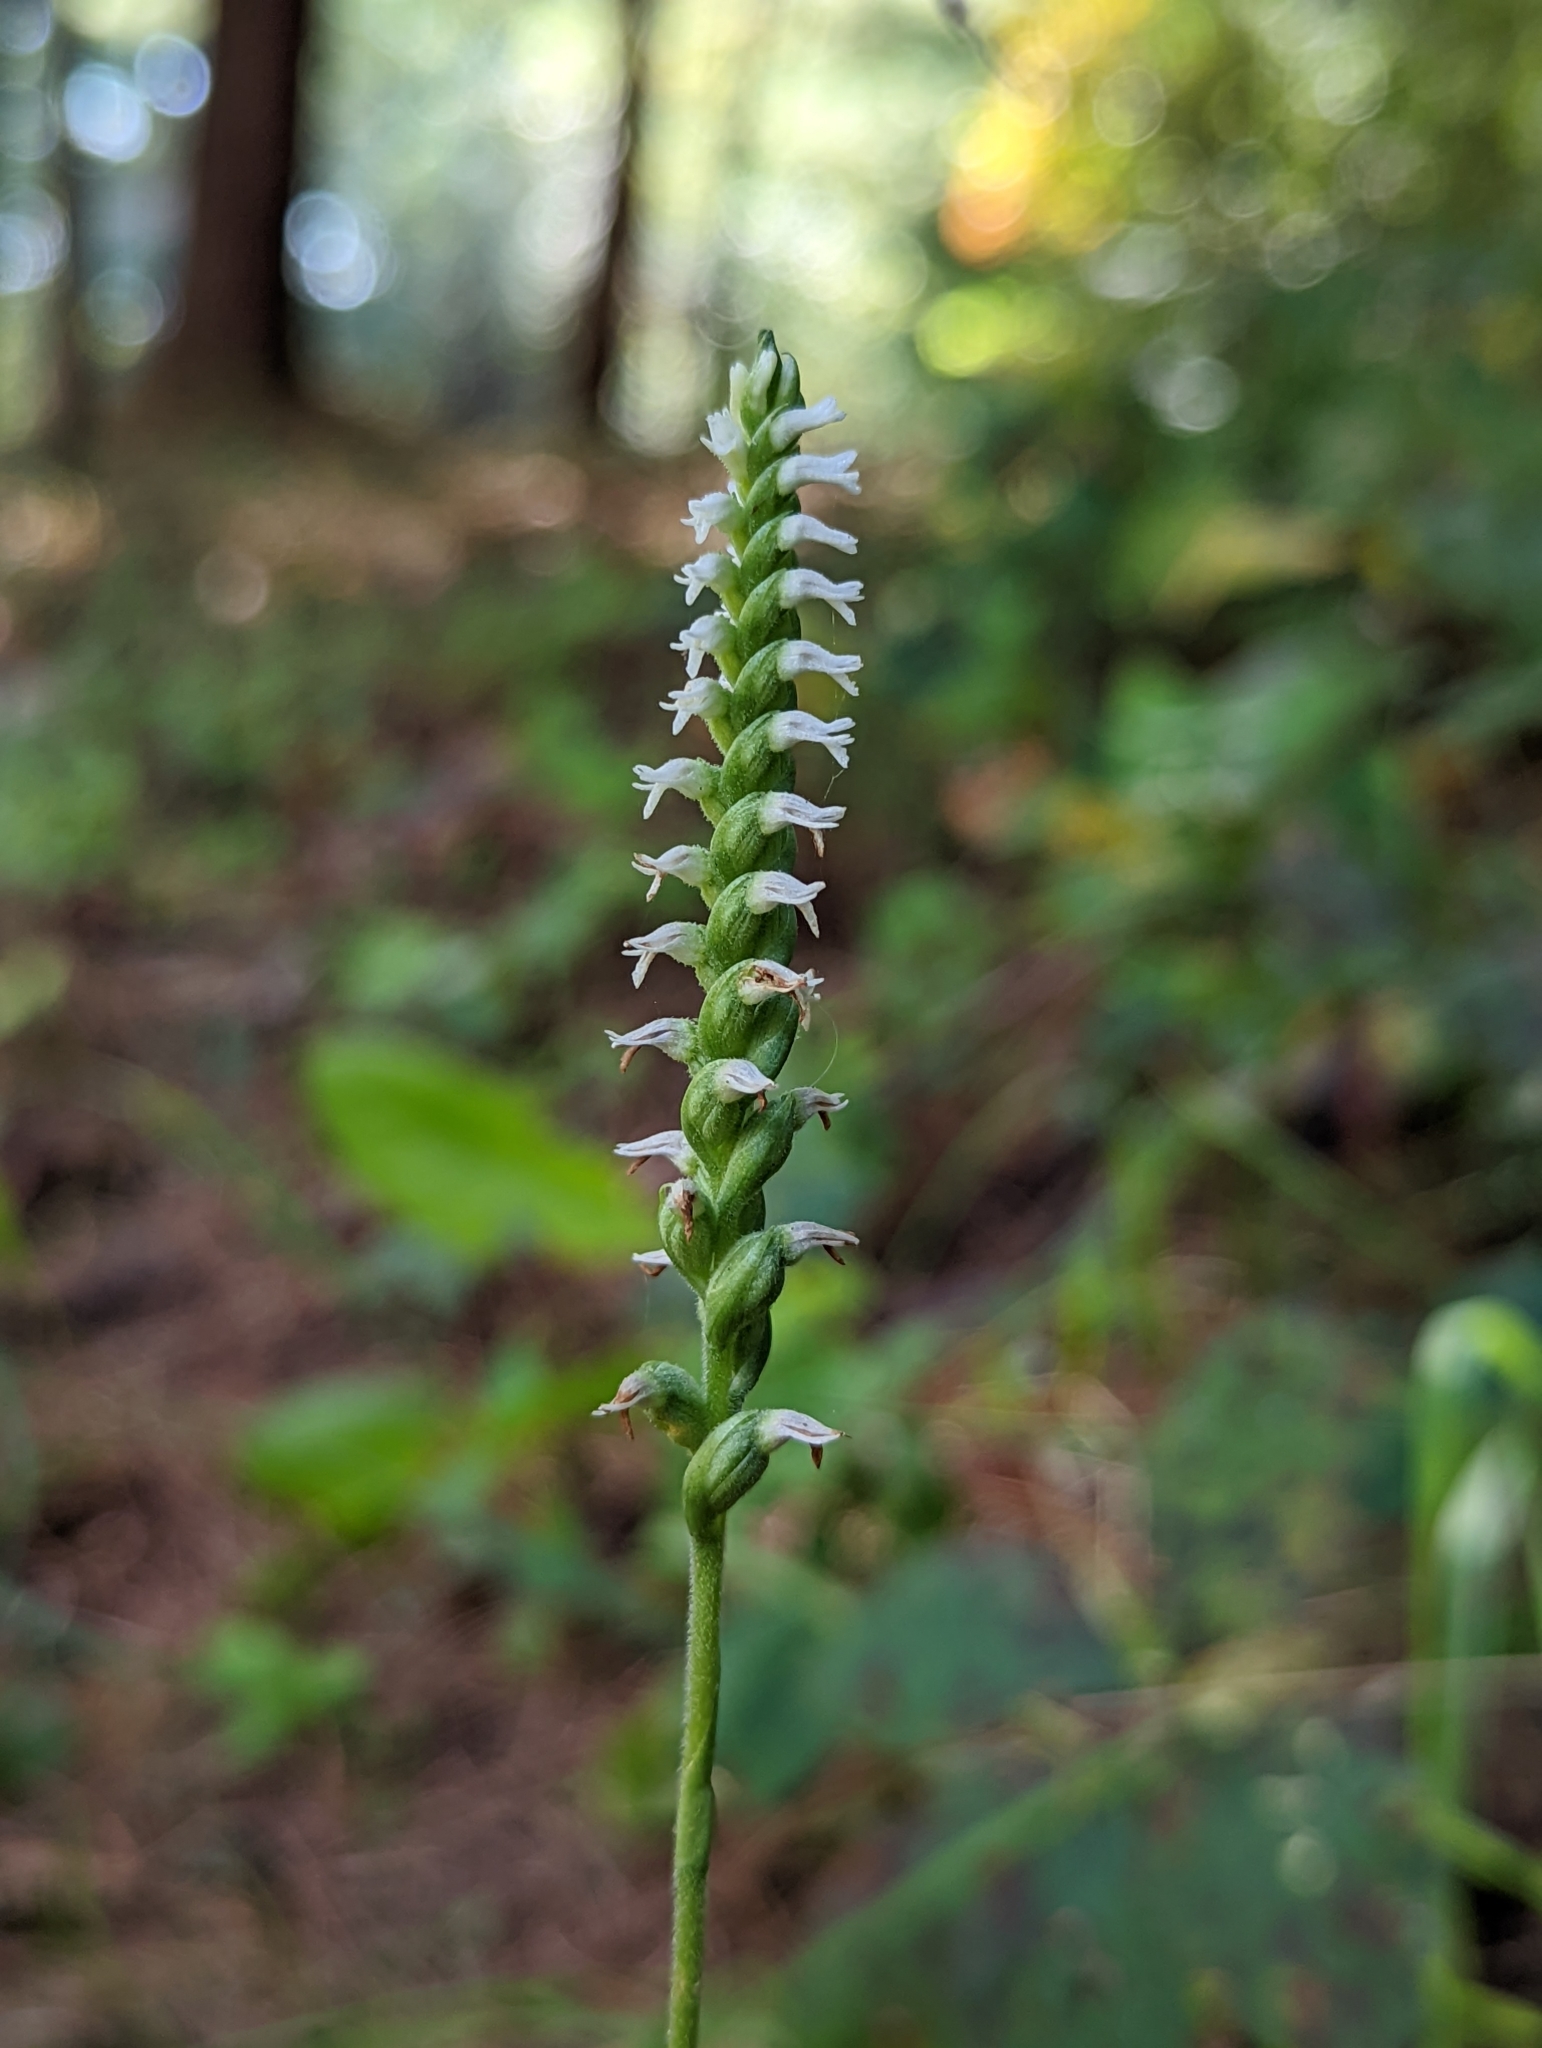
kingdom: Plantae
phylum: Tracheophyta
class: Liliopsida
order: Asparagales
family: Orchidaceae
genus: Spiranthes
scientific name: Spiranthes ovalis
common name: October ladies'-tresses
